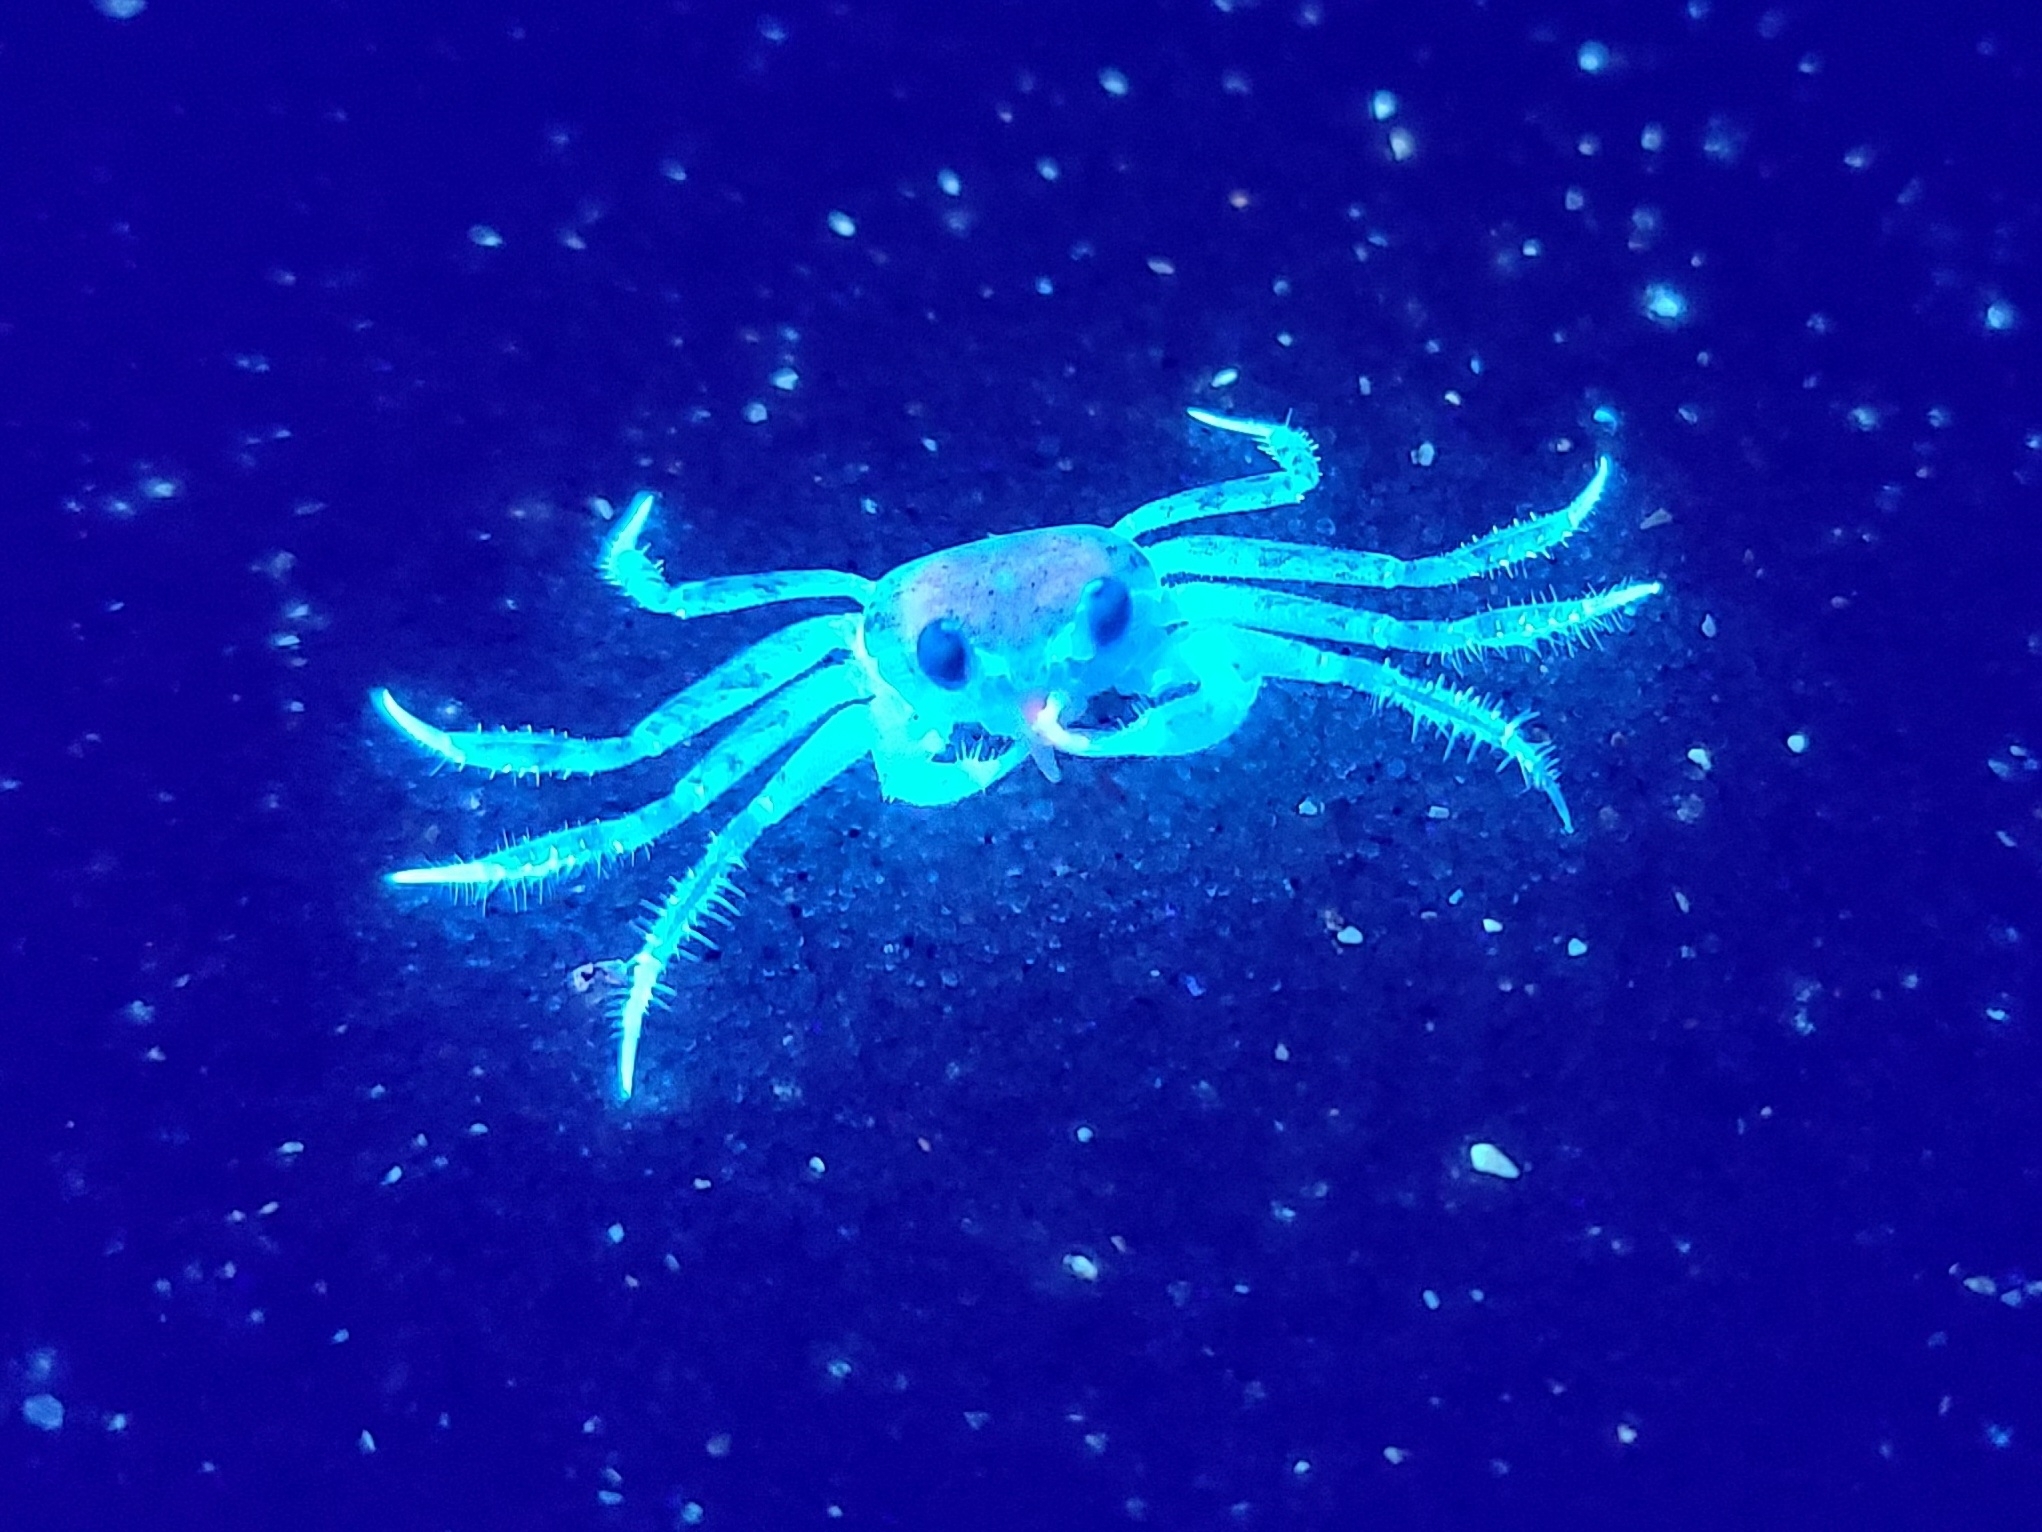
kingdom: Animalia
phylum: Arthropoda
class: Malacostraca
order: Decapoda
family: Ocypodidae
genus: Ocypode
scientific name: Ocypode quadrata
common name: Ghost crab
